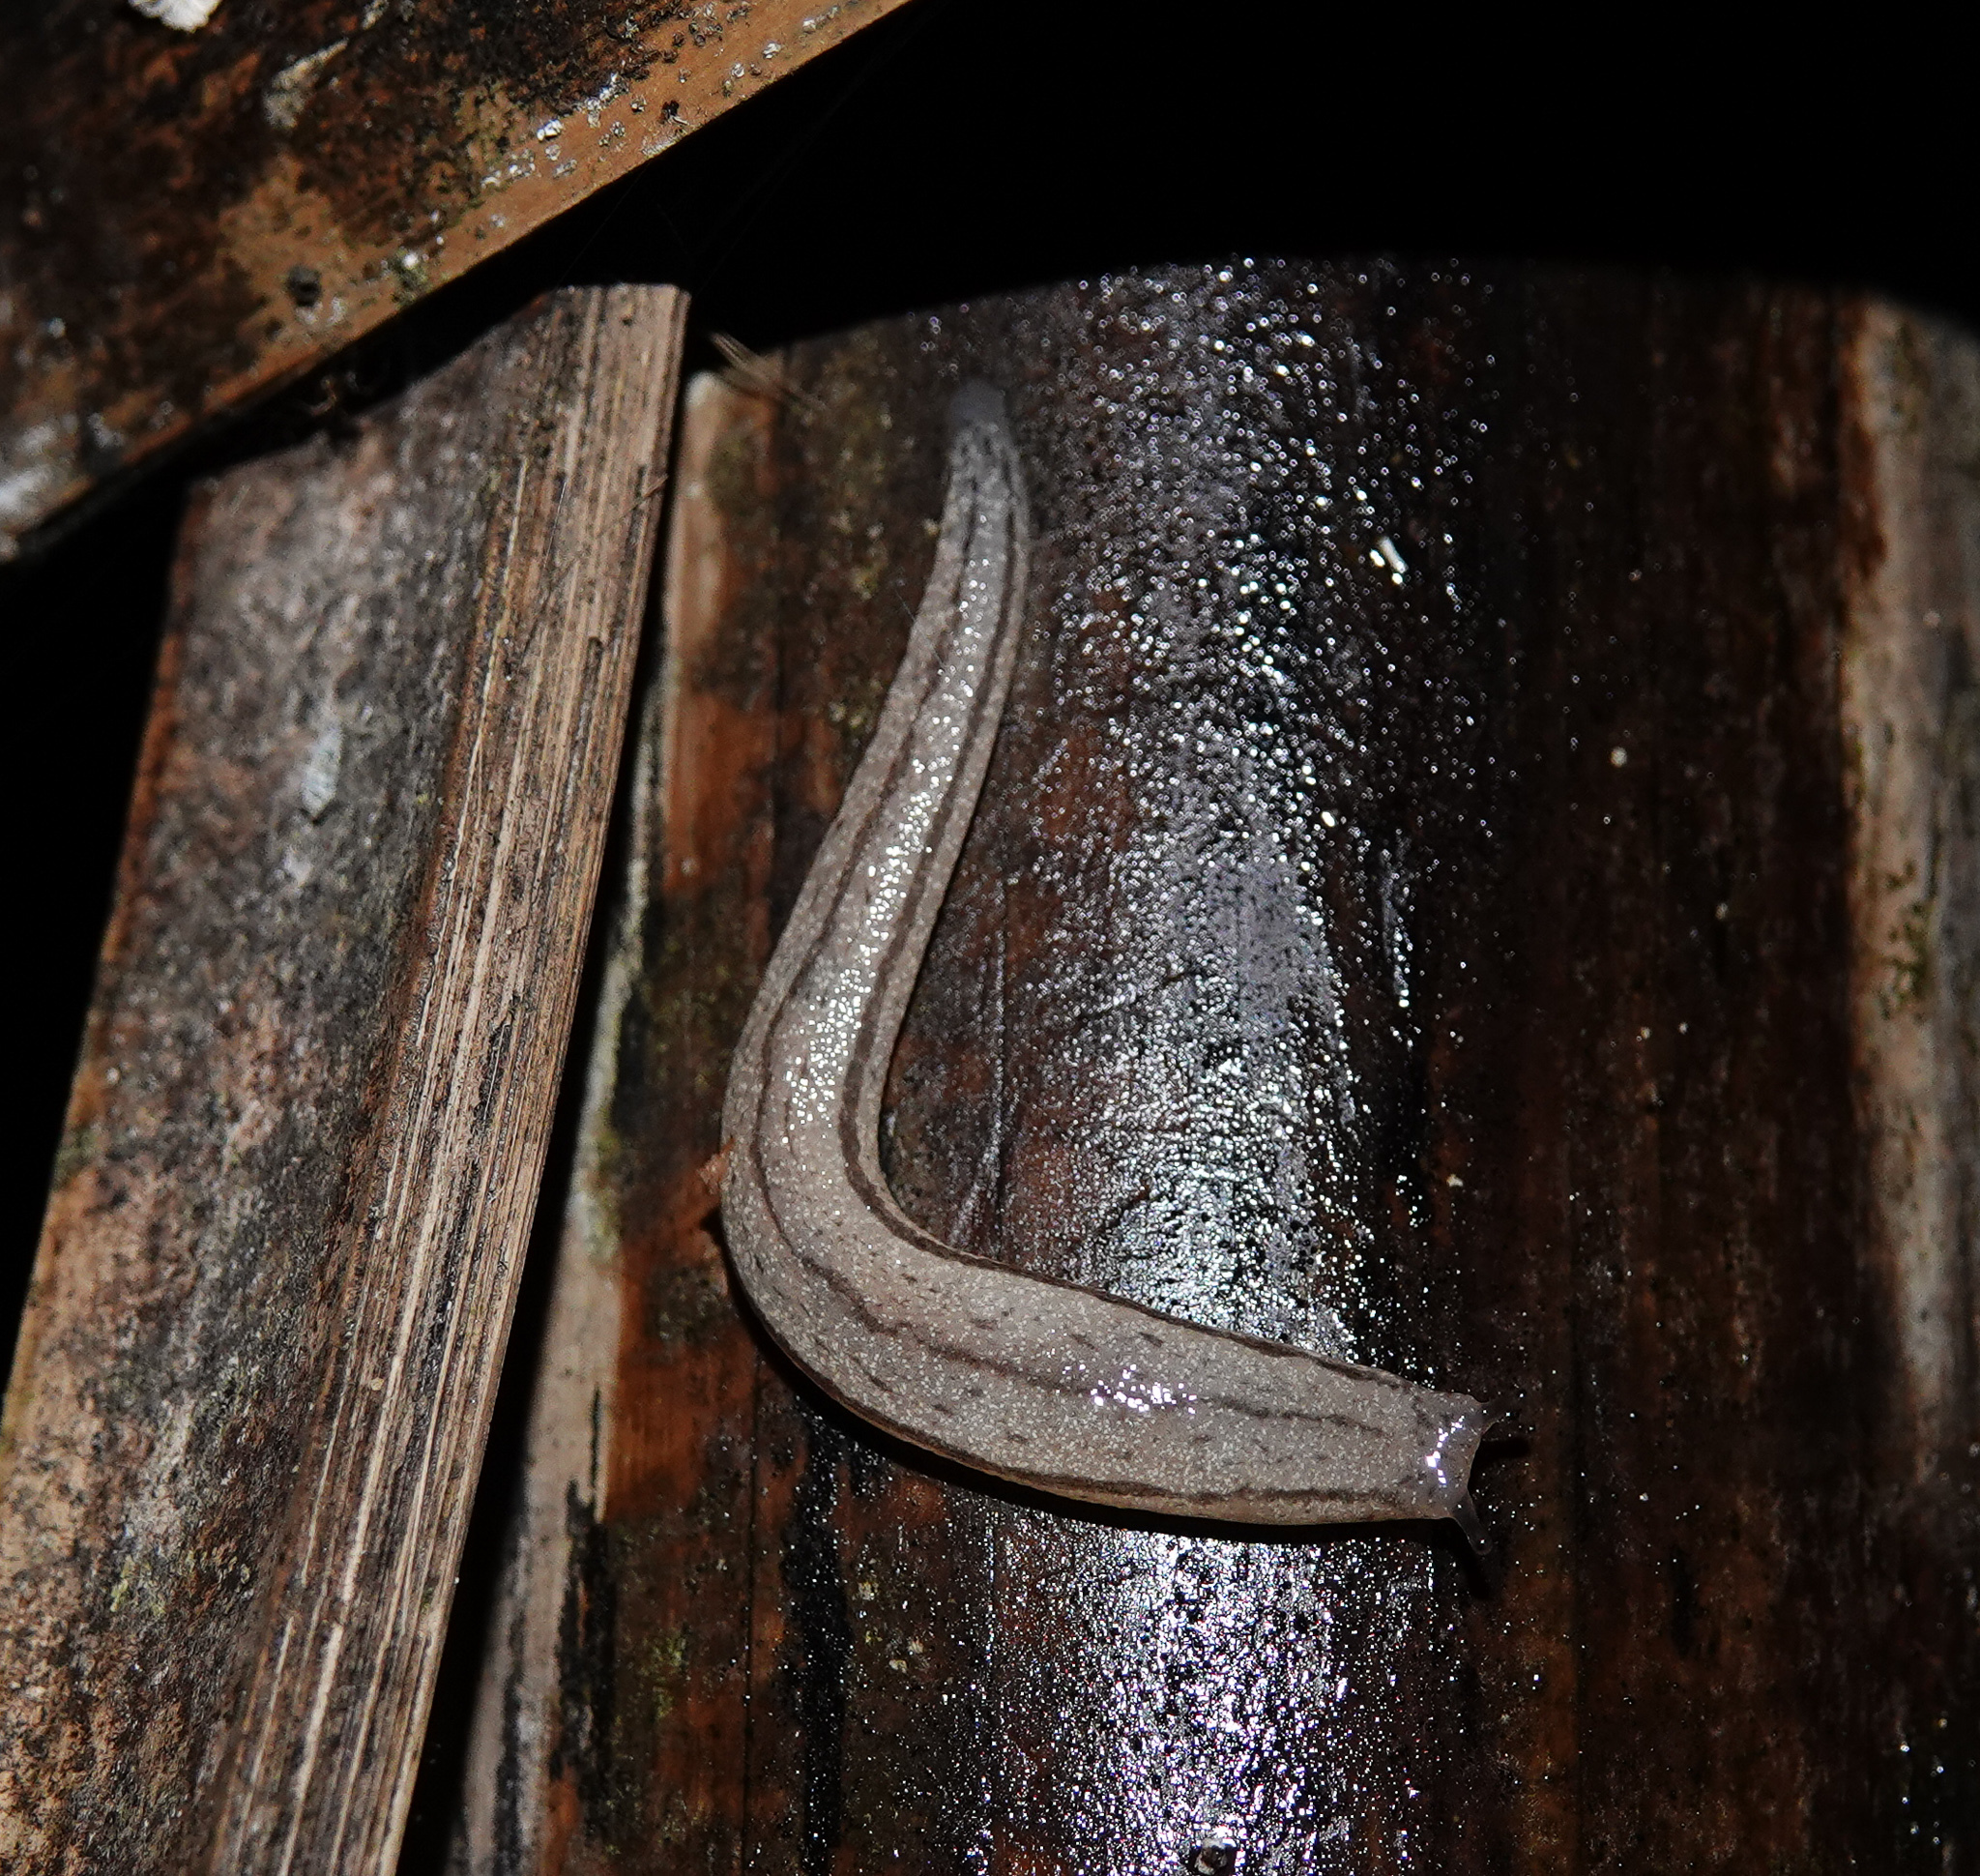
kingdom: Animalia
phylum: Mollusca
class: Gastropoda
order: Stylommatophora
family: Philomycidae
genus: Meghimatium
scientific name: Meghimatium bilineatum
